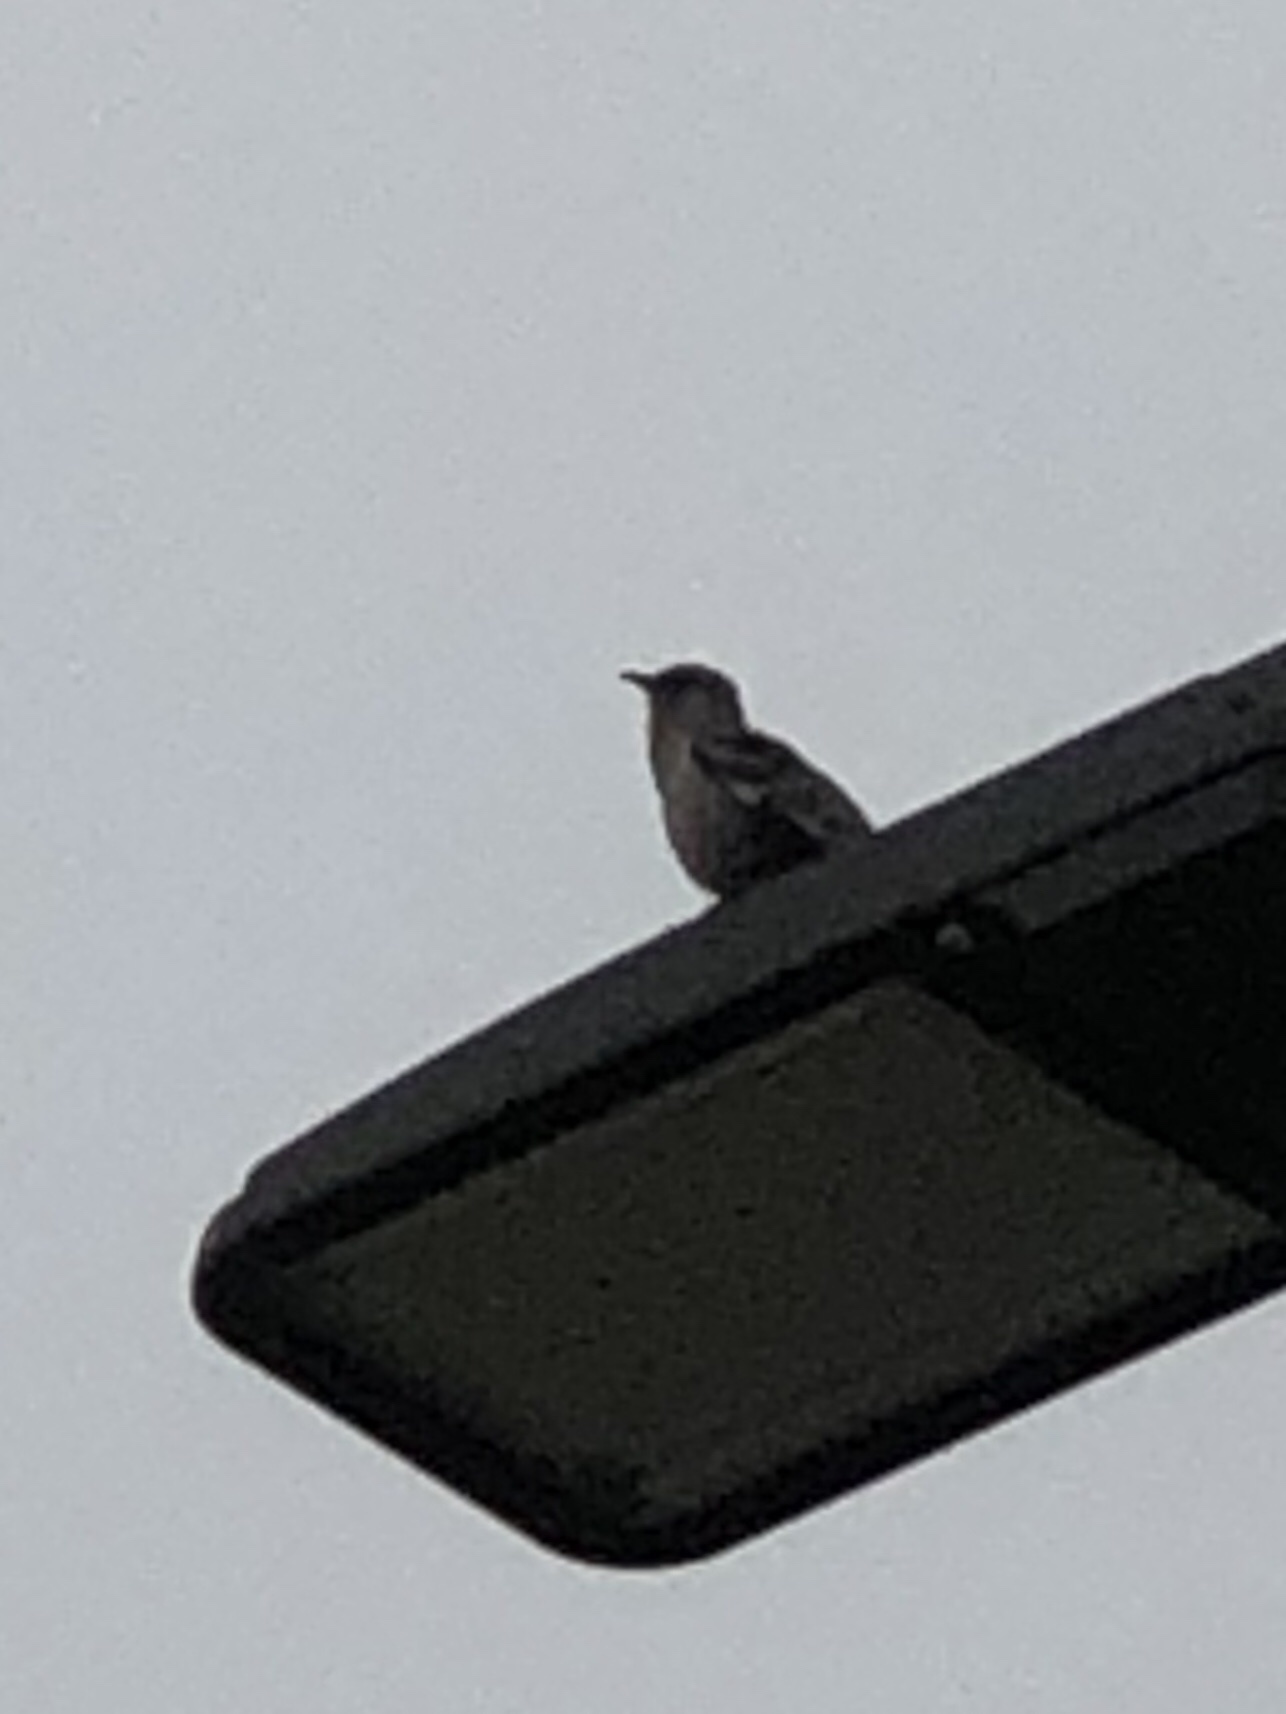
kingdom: Animalia
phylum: Chordata
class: Aves
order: Passeriformes
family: Mimidae
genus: Mimus
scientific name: Mimus polyglottos
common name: Northern mockingbird
